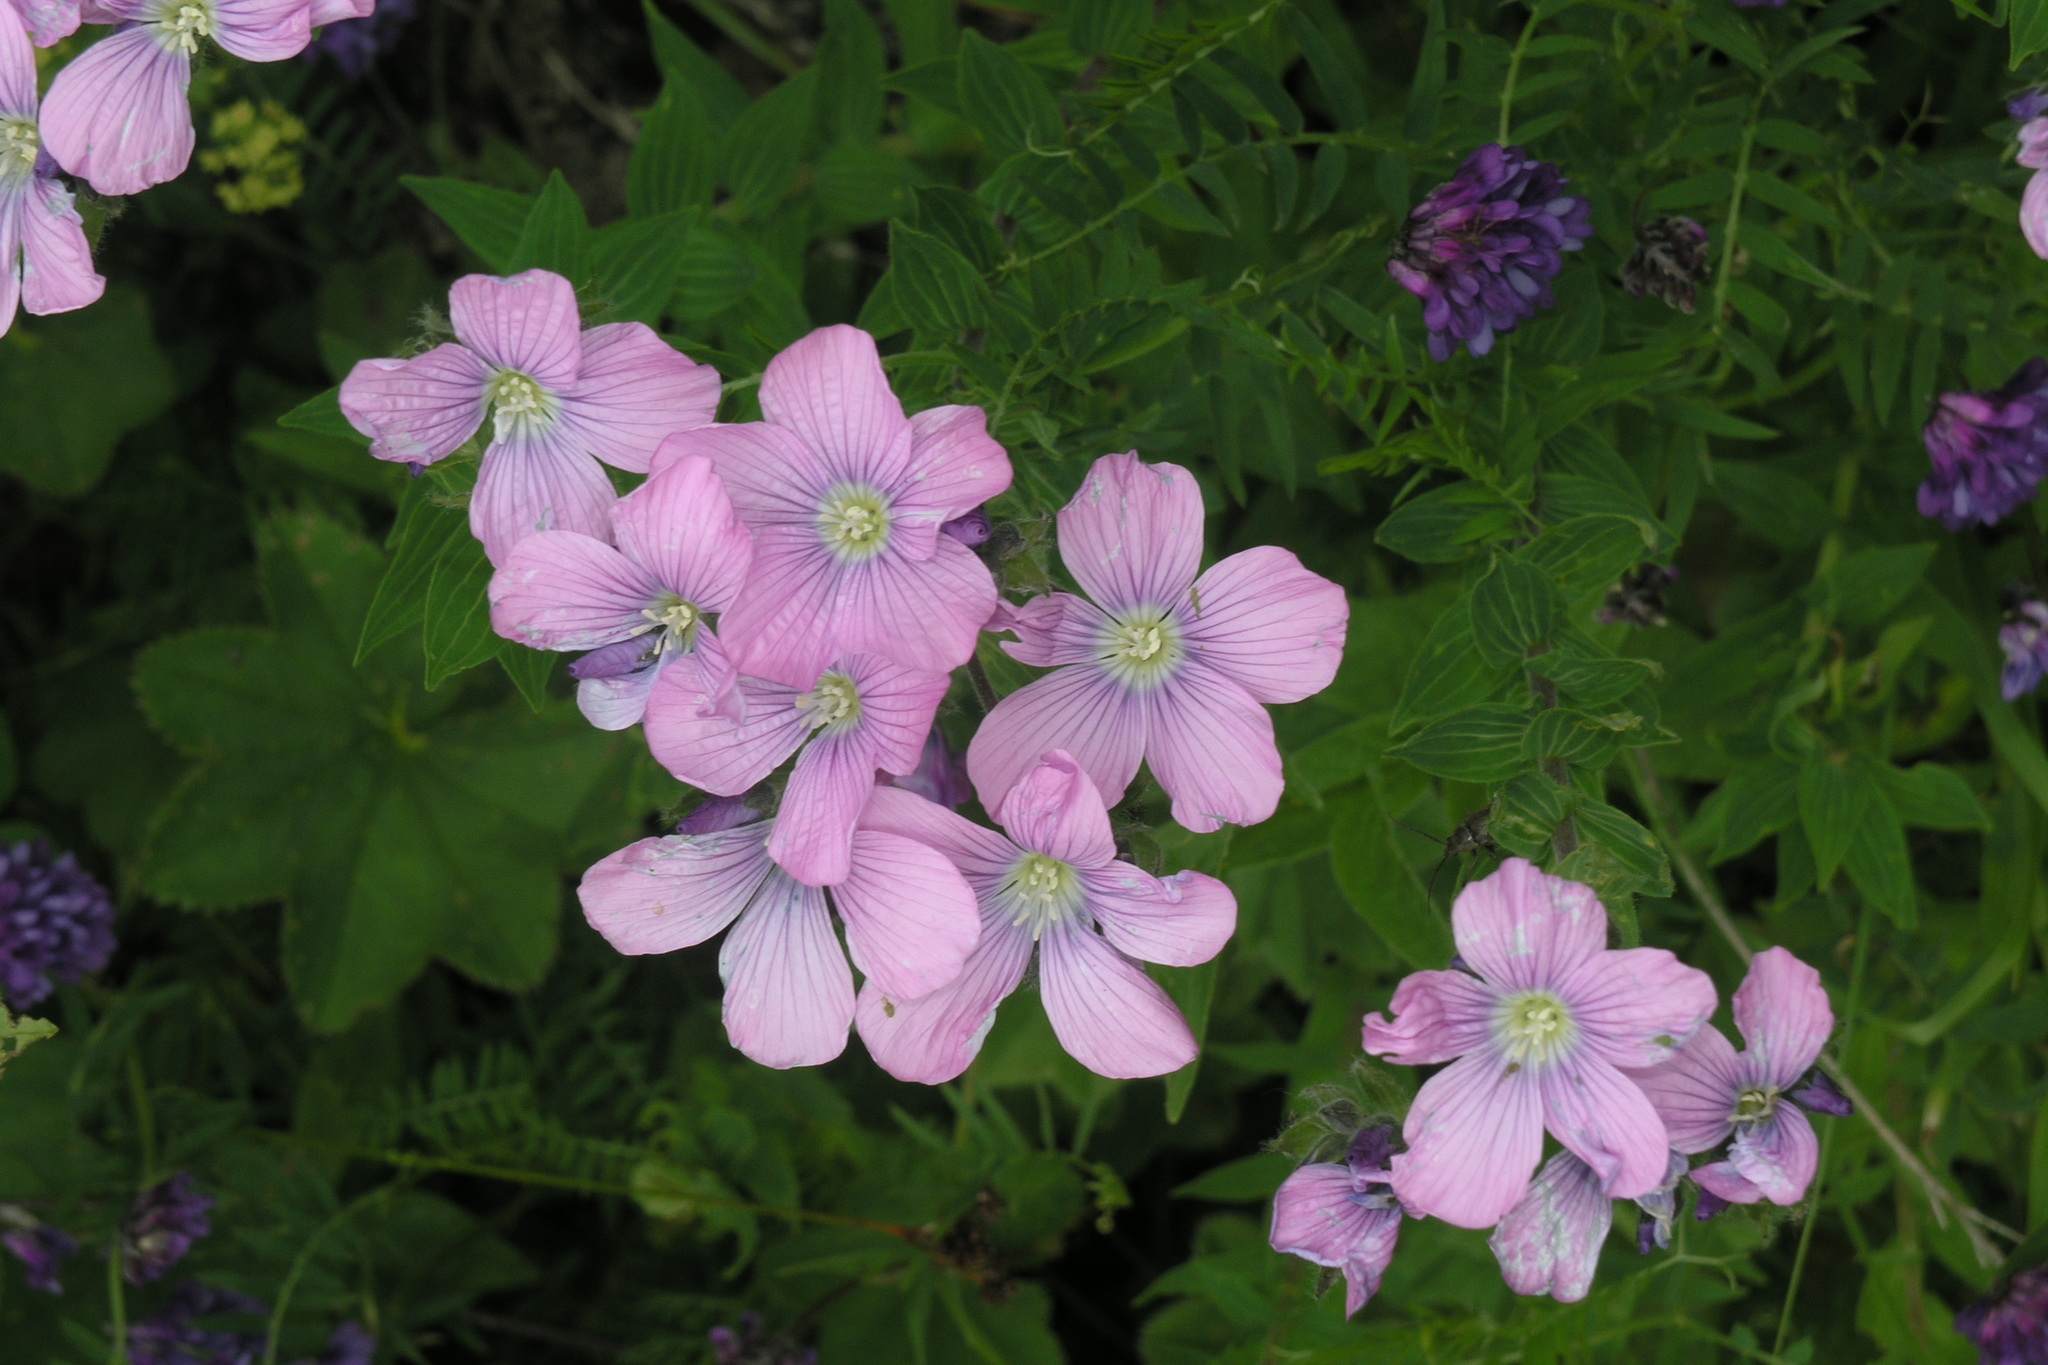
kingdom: Plantae
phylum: Tracheophyta
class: Magnoliopsida
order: Malpighiales
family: Linaceae
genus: Linum
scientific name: Linum hypericifolium
